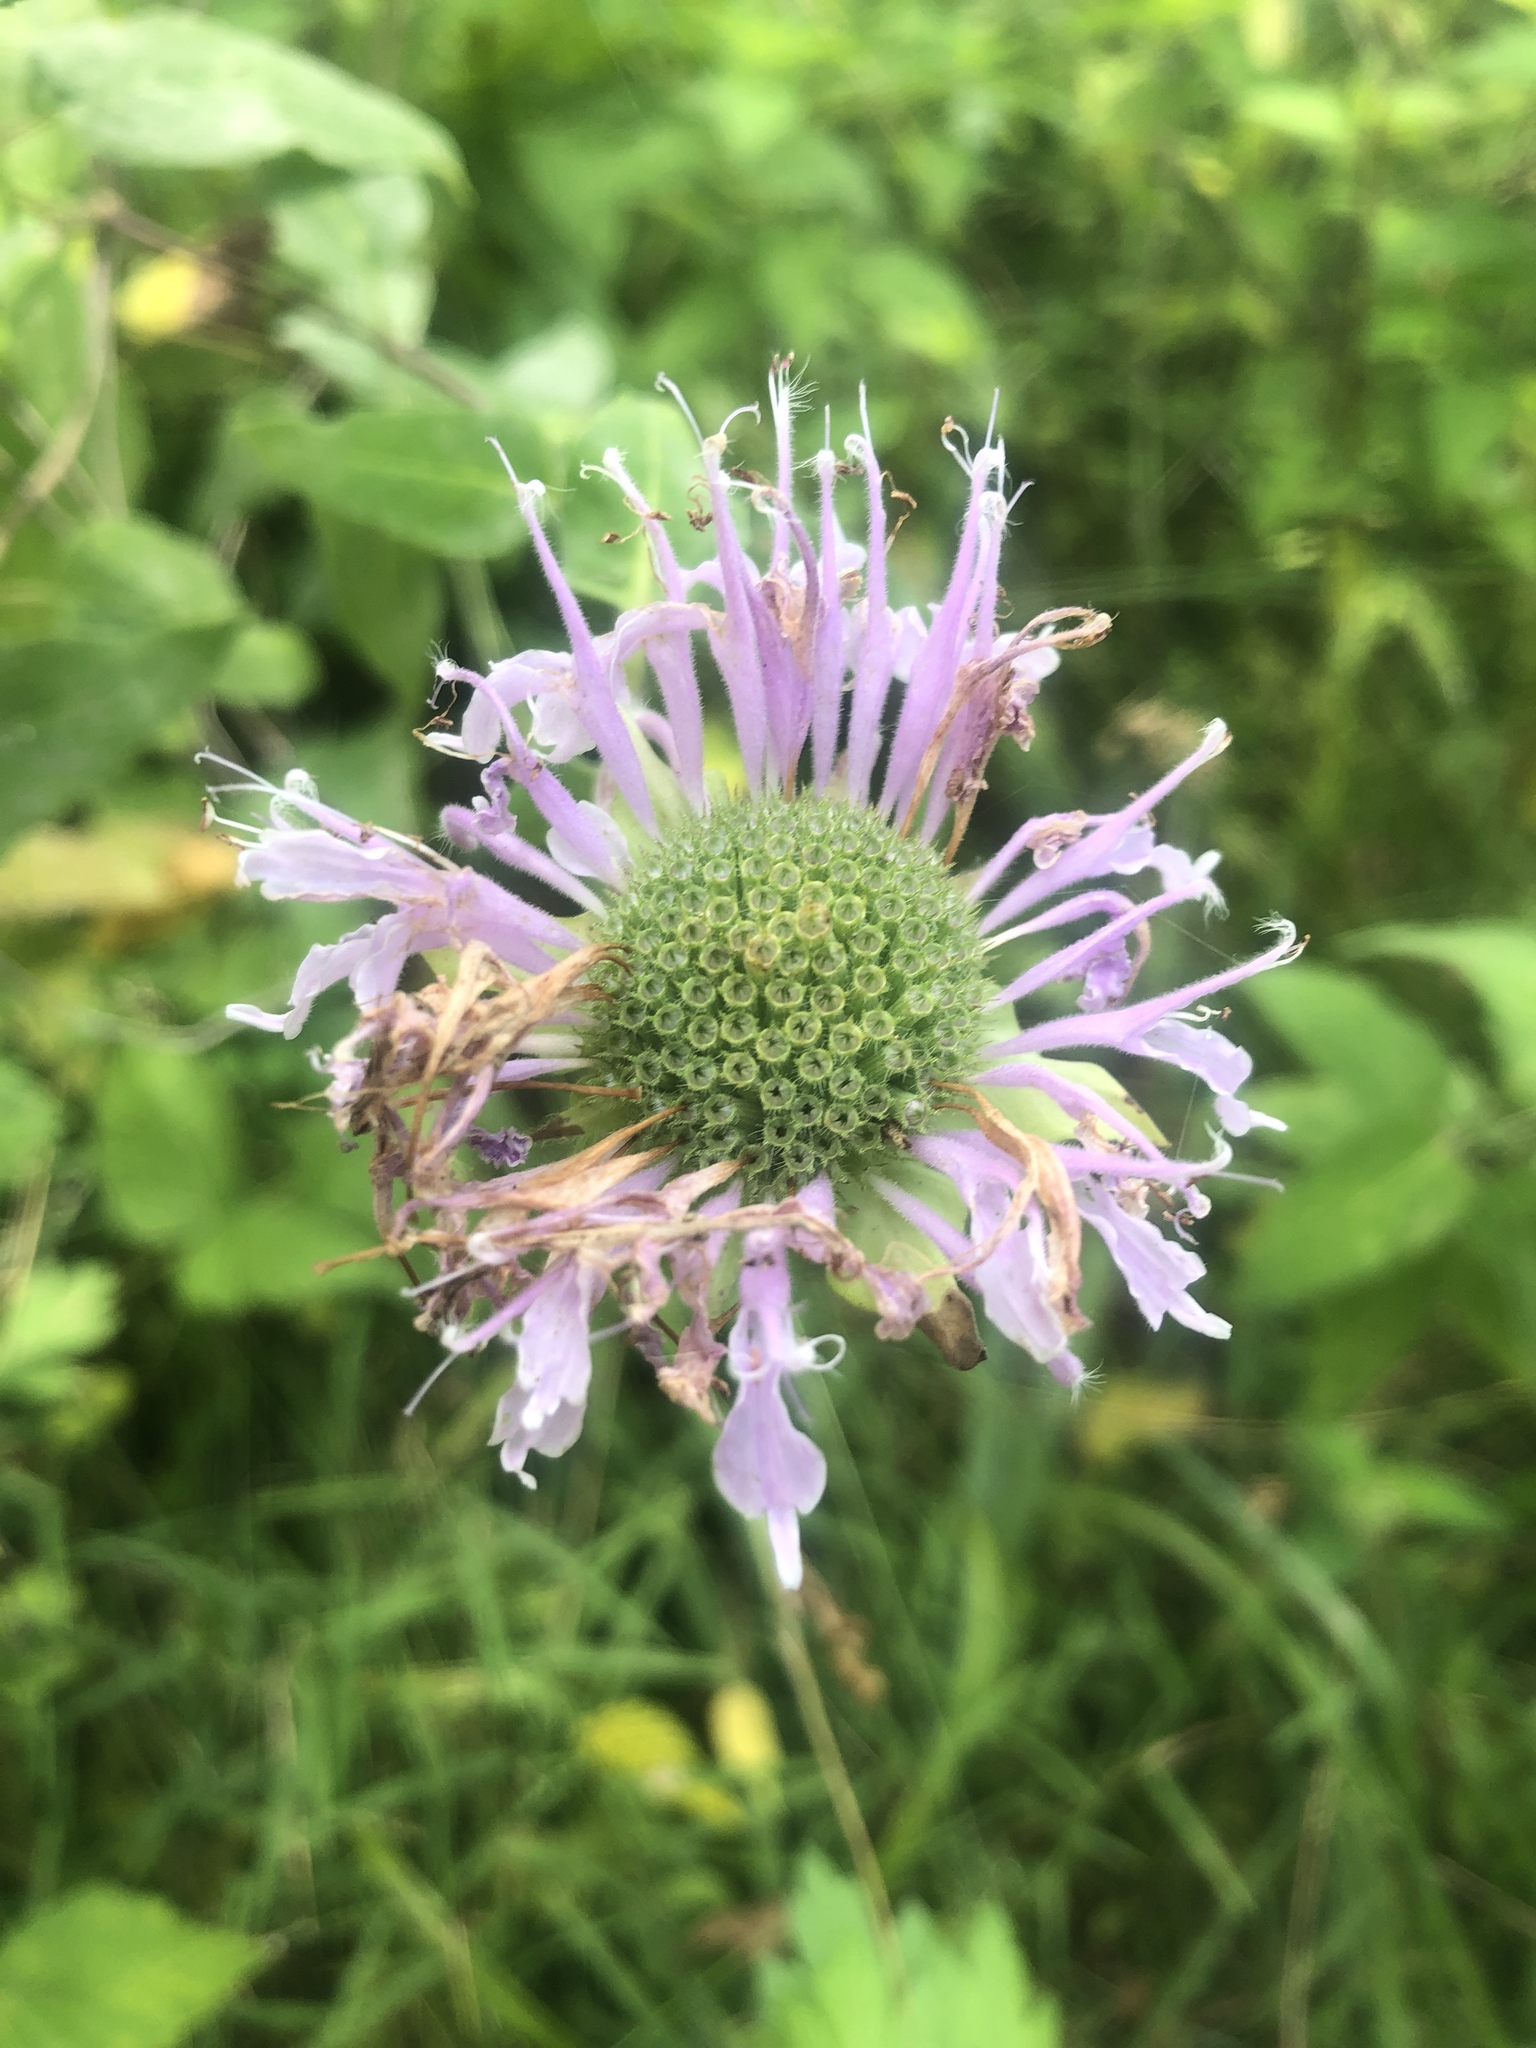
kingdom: Plantae
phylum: Tracheophyta
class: Magnoliopsida
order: Lamiales
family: Lamiaceae
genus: Monarda
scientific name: Monarda fistulosa
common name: Purple beebalm
